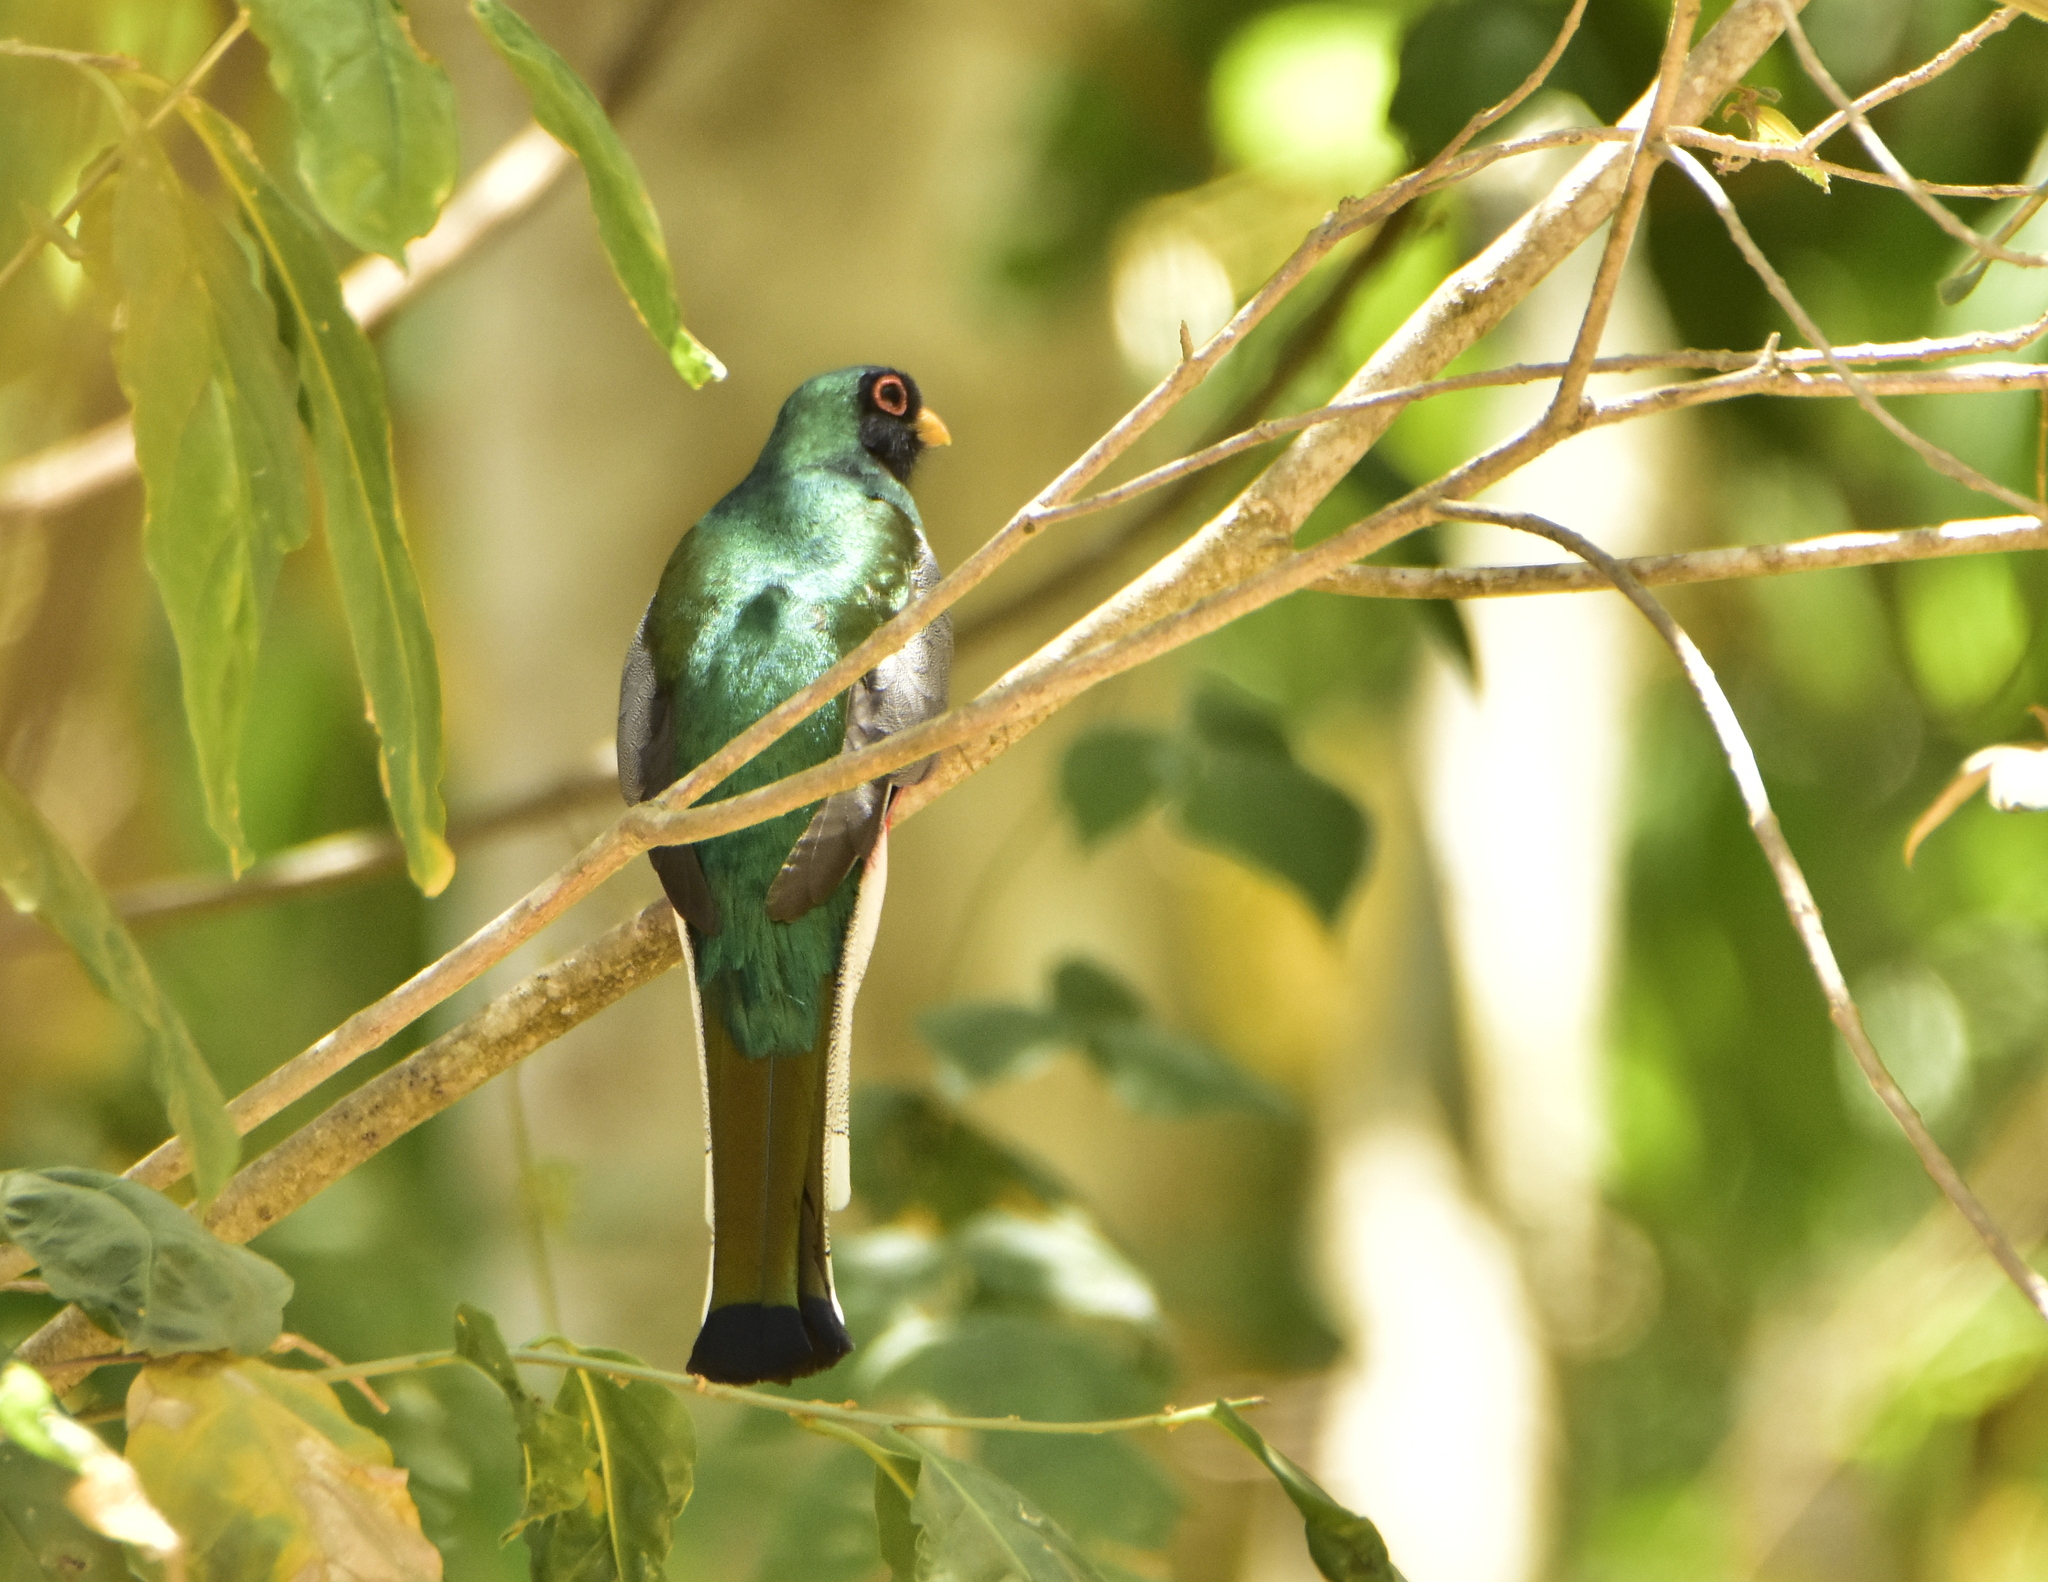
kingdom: Animalia
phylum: Chordata
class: Aves
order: Trogoniformes
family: Trogonidae
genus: Trogon
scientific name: Trogon elegans
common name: Elegant trogon
